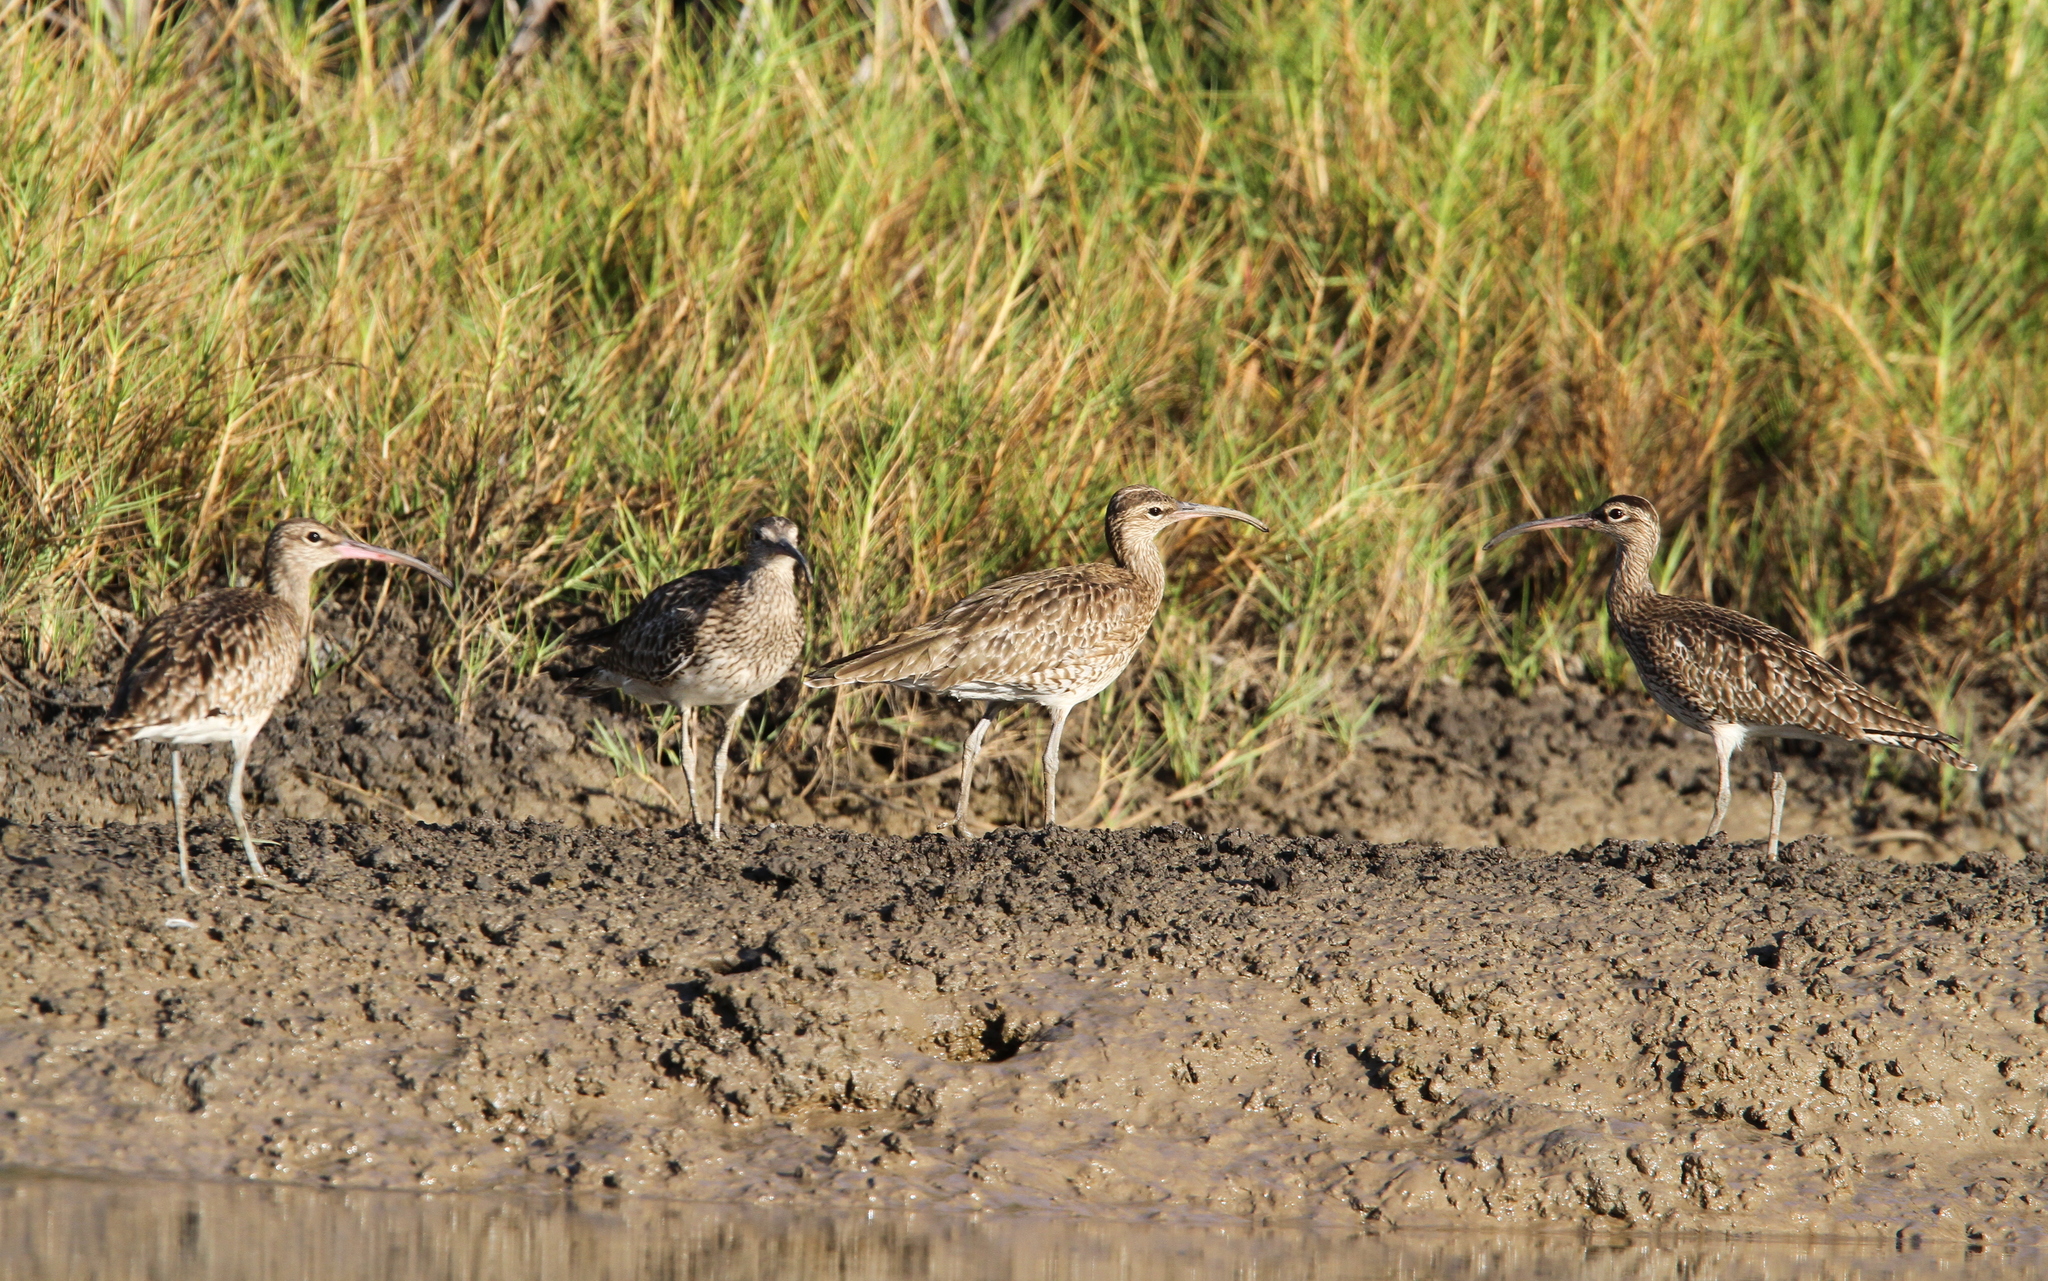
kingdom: Animalia
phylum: Chordata
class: Aves
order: Charadriiformes
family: Scolopacidae
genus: Numenius
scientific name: Numenius phaeopus
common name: Whimbrel
